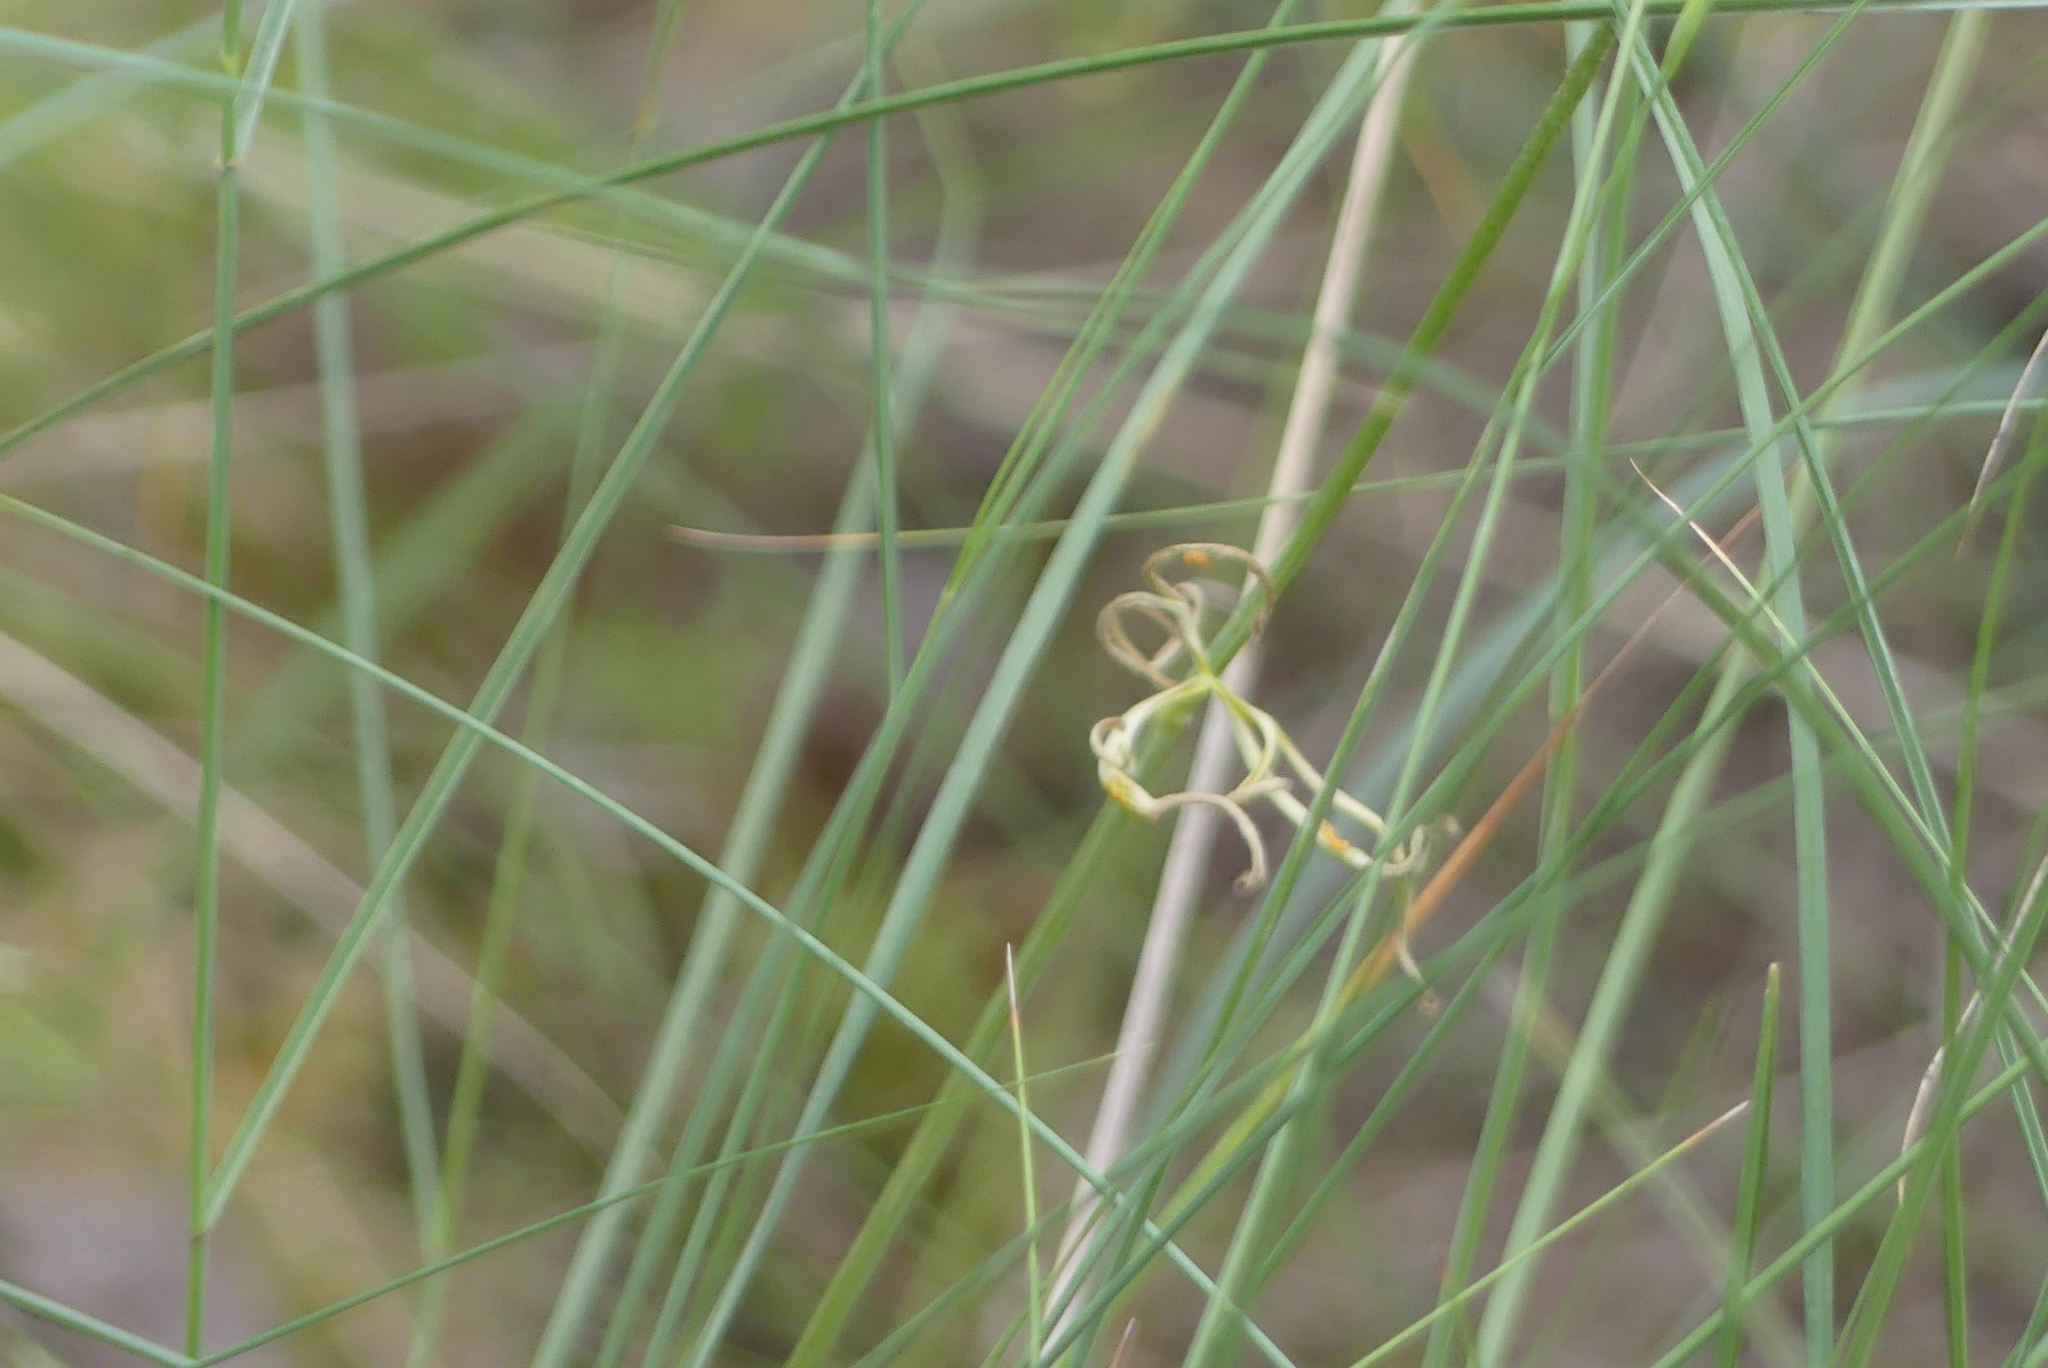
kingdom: Plantae
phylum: Tracheophyta
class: Magnoliopsida
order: Ranunculales
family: Ranunculaceae
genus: Delphinium
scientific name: Delphinium nuttallianum
